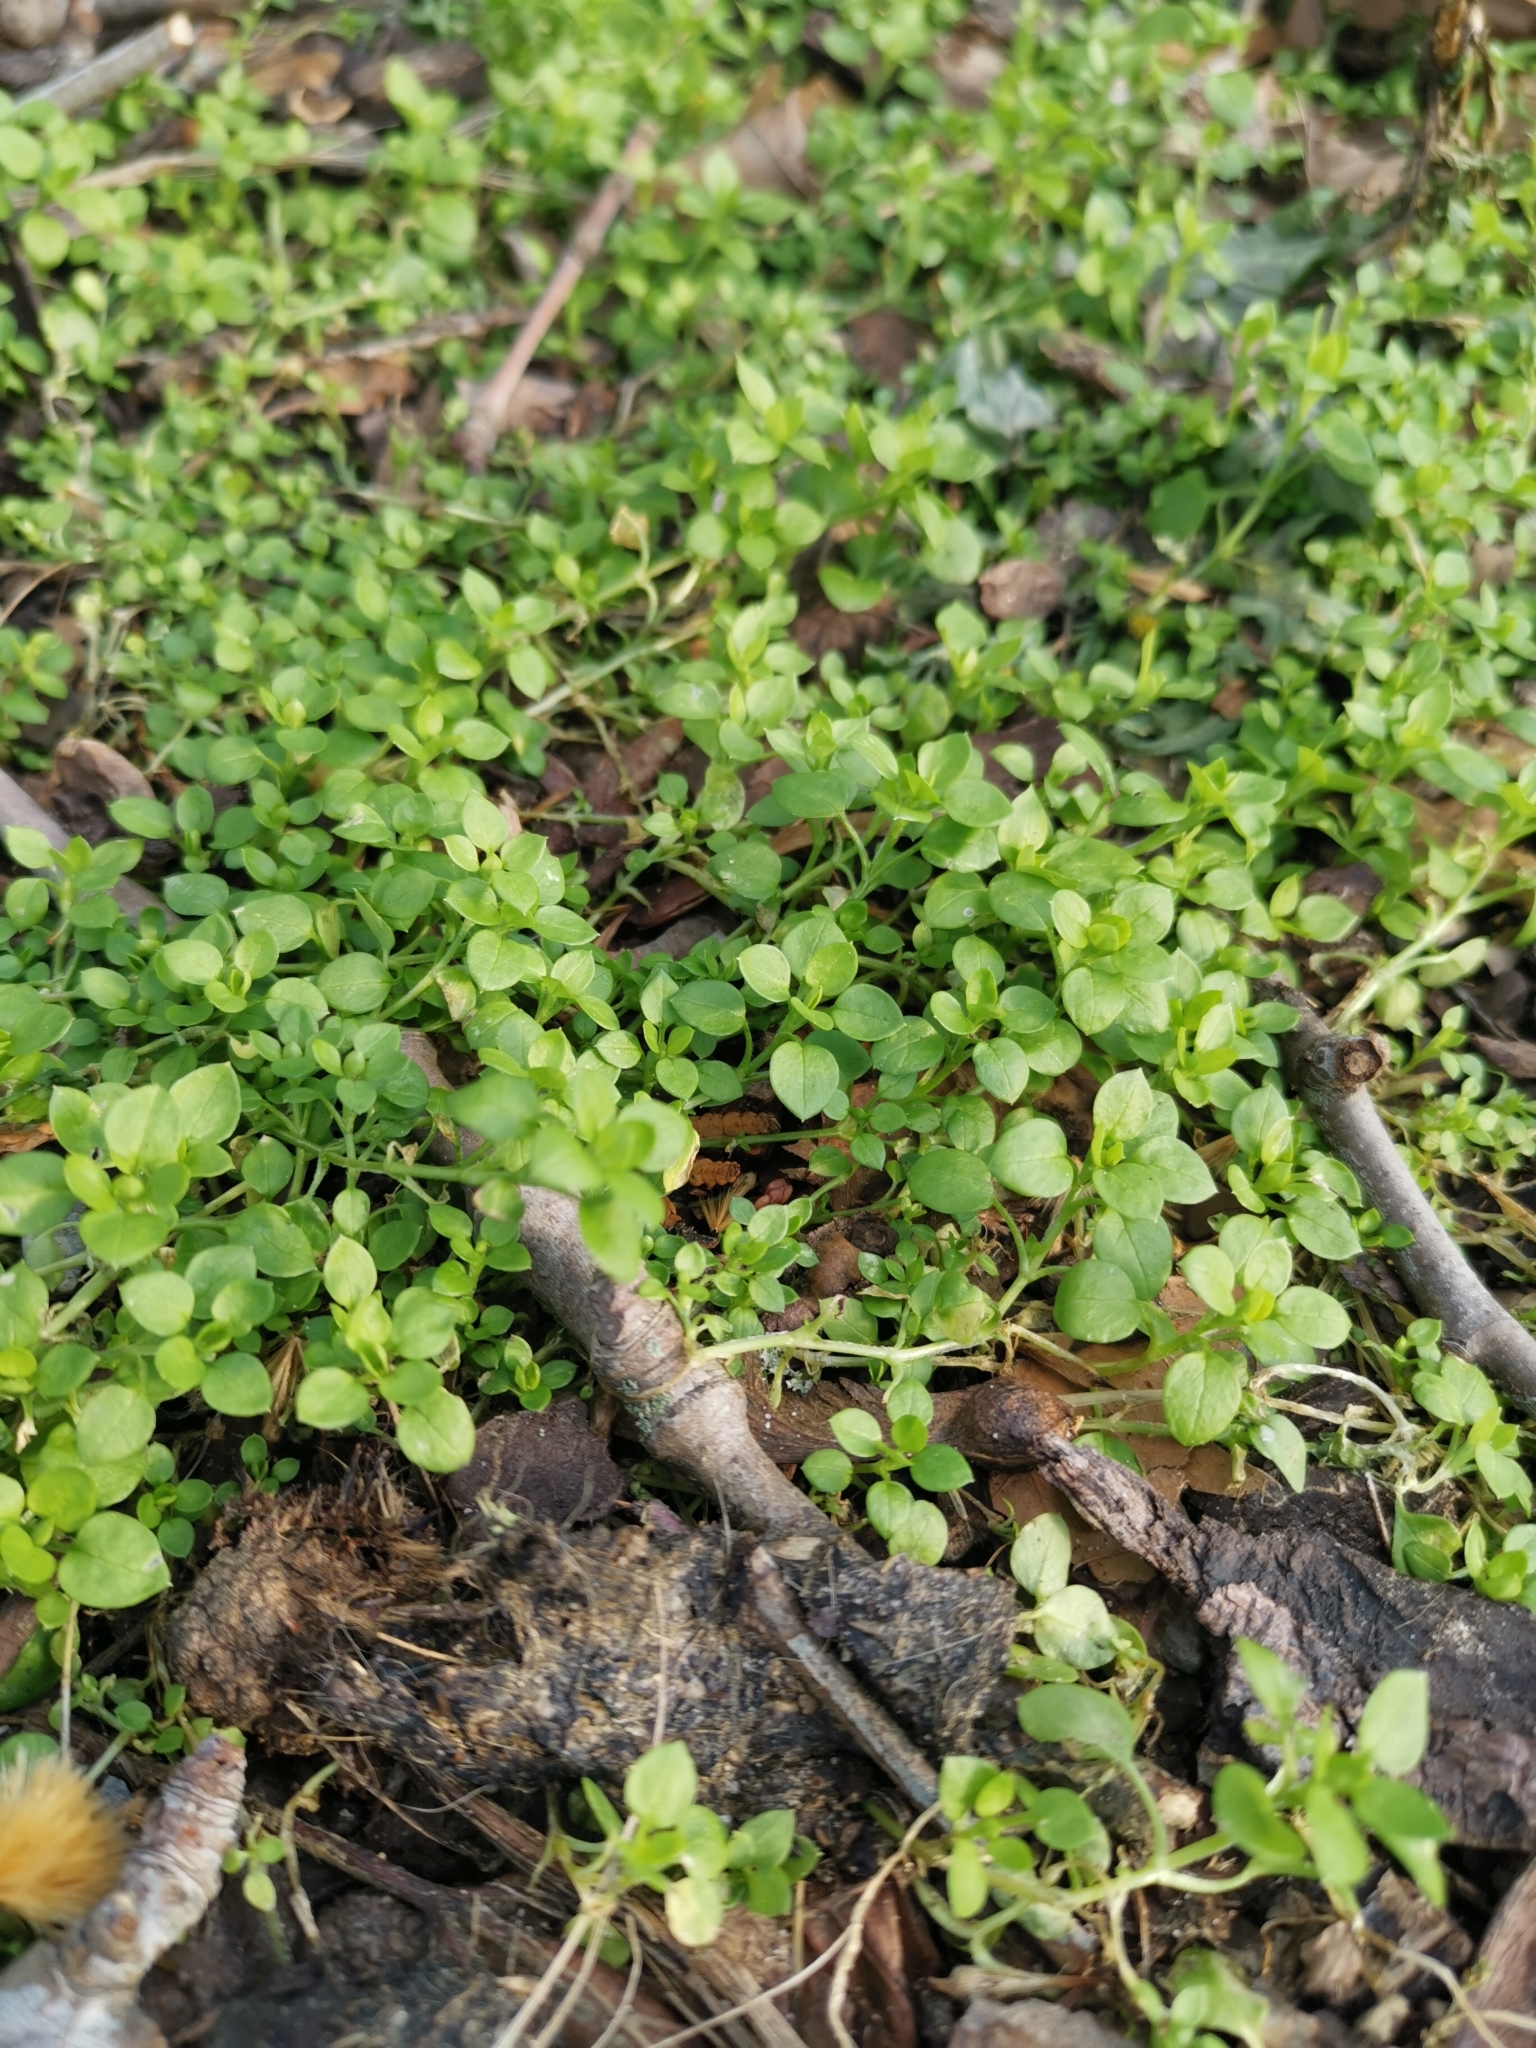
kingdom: Plantae
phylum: Tracheophyta
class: Magnoliopsida
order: Caryophyllales
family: Caryophyllaceae
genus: Stellaria
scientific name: Stellaria media
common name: Common chickweed
